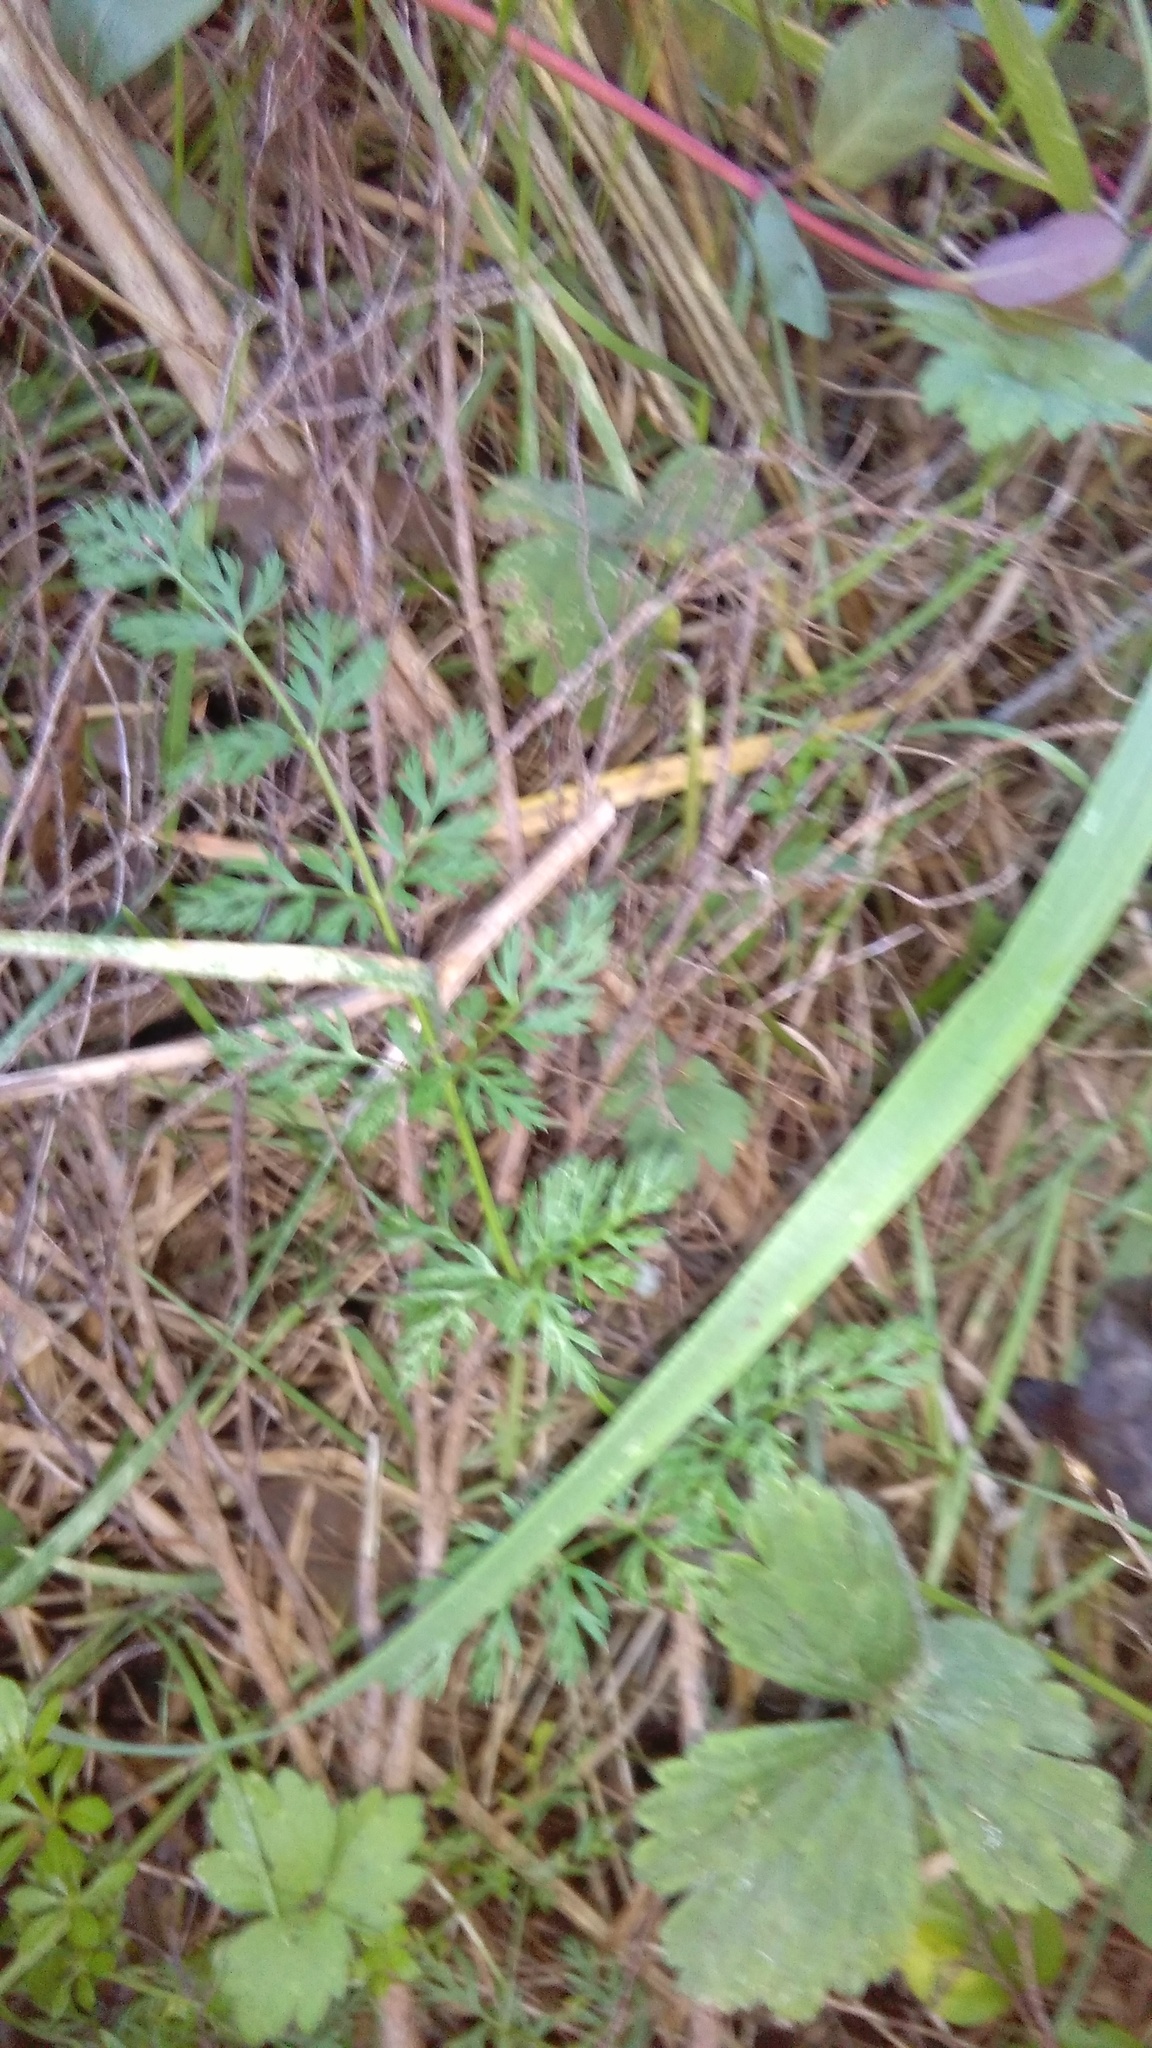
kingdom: Plantae
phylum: Tracheophyta
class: Magnoliopsida
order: Apiales
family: Apiaceae
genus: Daucus
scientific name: Daucus carota
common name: Wild carrot
